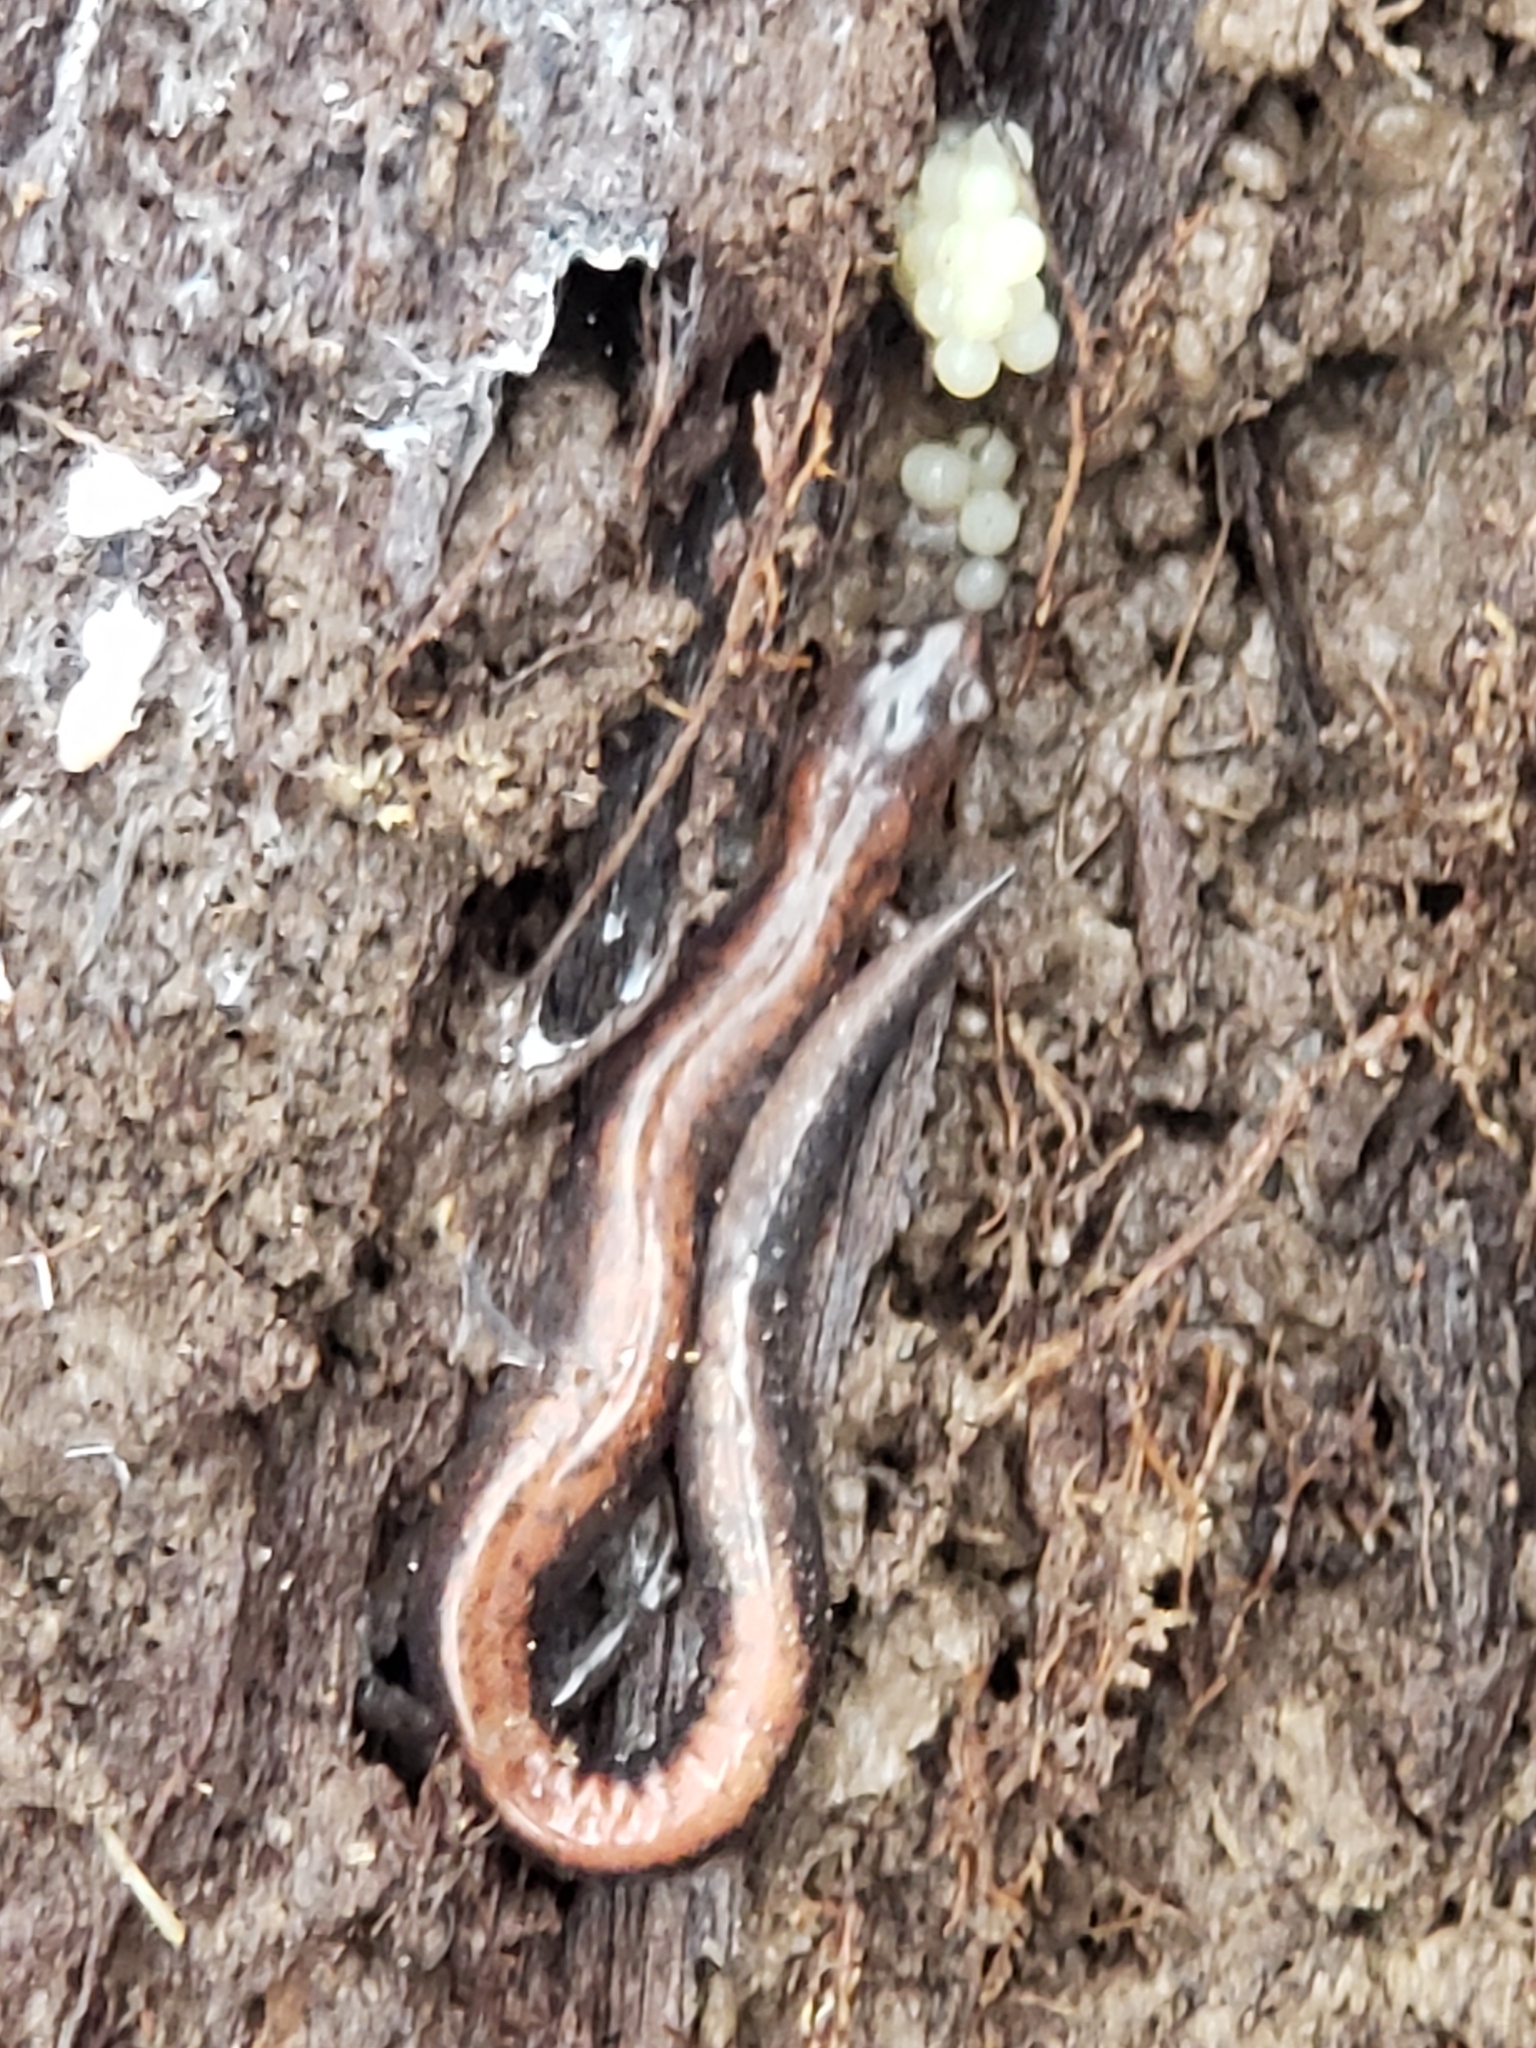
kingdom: Animalia
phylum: Chordata
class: Amphibia
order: Caudata
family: Plethodontidae
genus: Plethodon
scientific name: Plethodon cinereus
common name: Redback salamander
